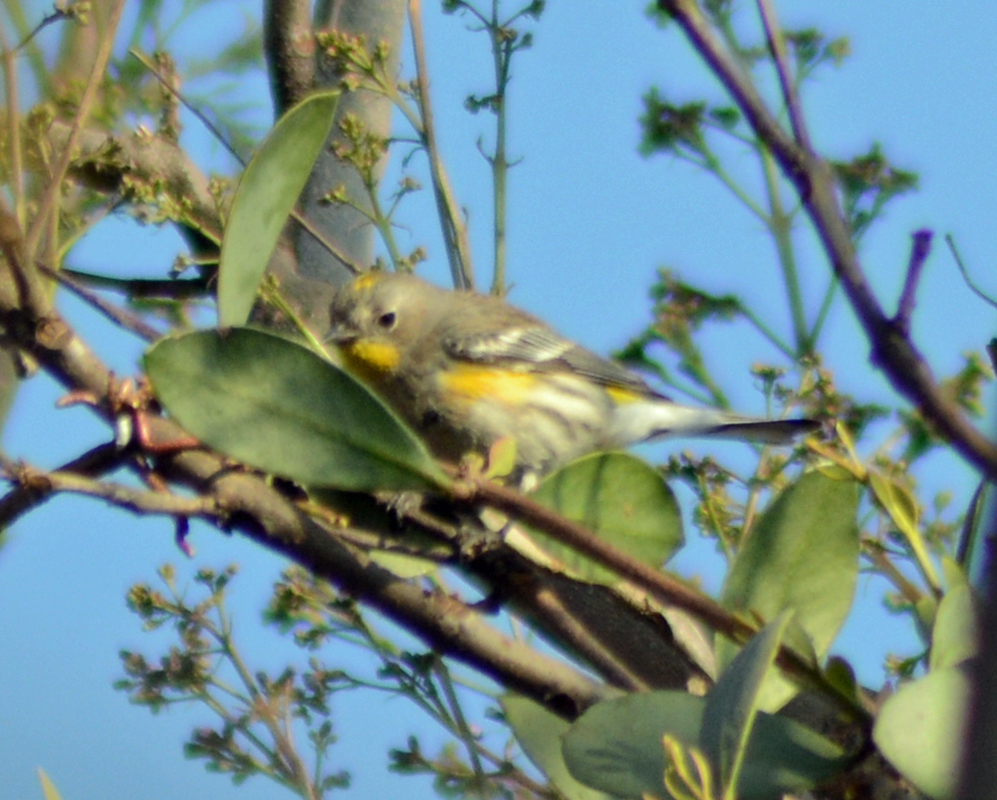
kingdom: Animalia
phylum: Chordata
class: Aves
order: Passeriformes
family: Parulidae
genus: Setophaga
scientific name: Setophaga auduboni
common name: Audubon's warbler
